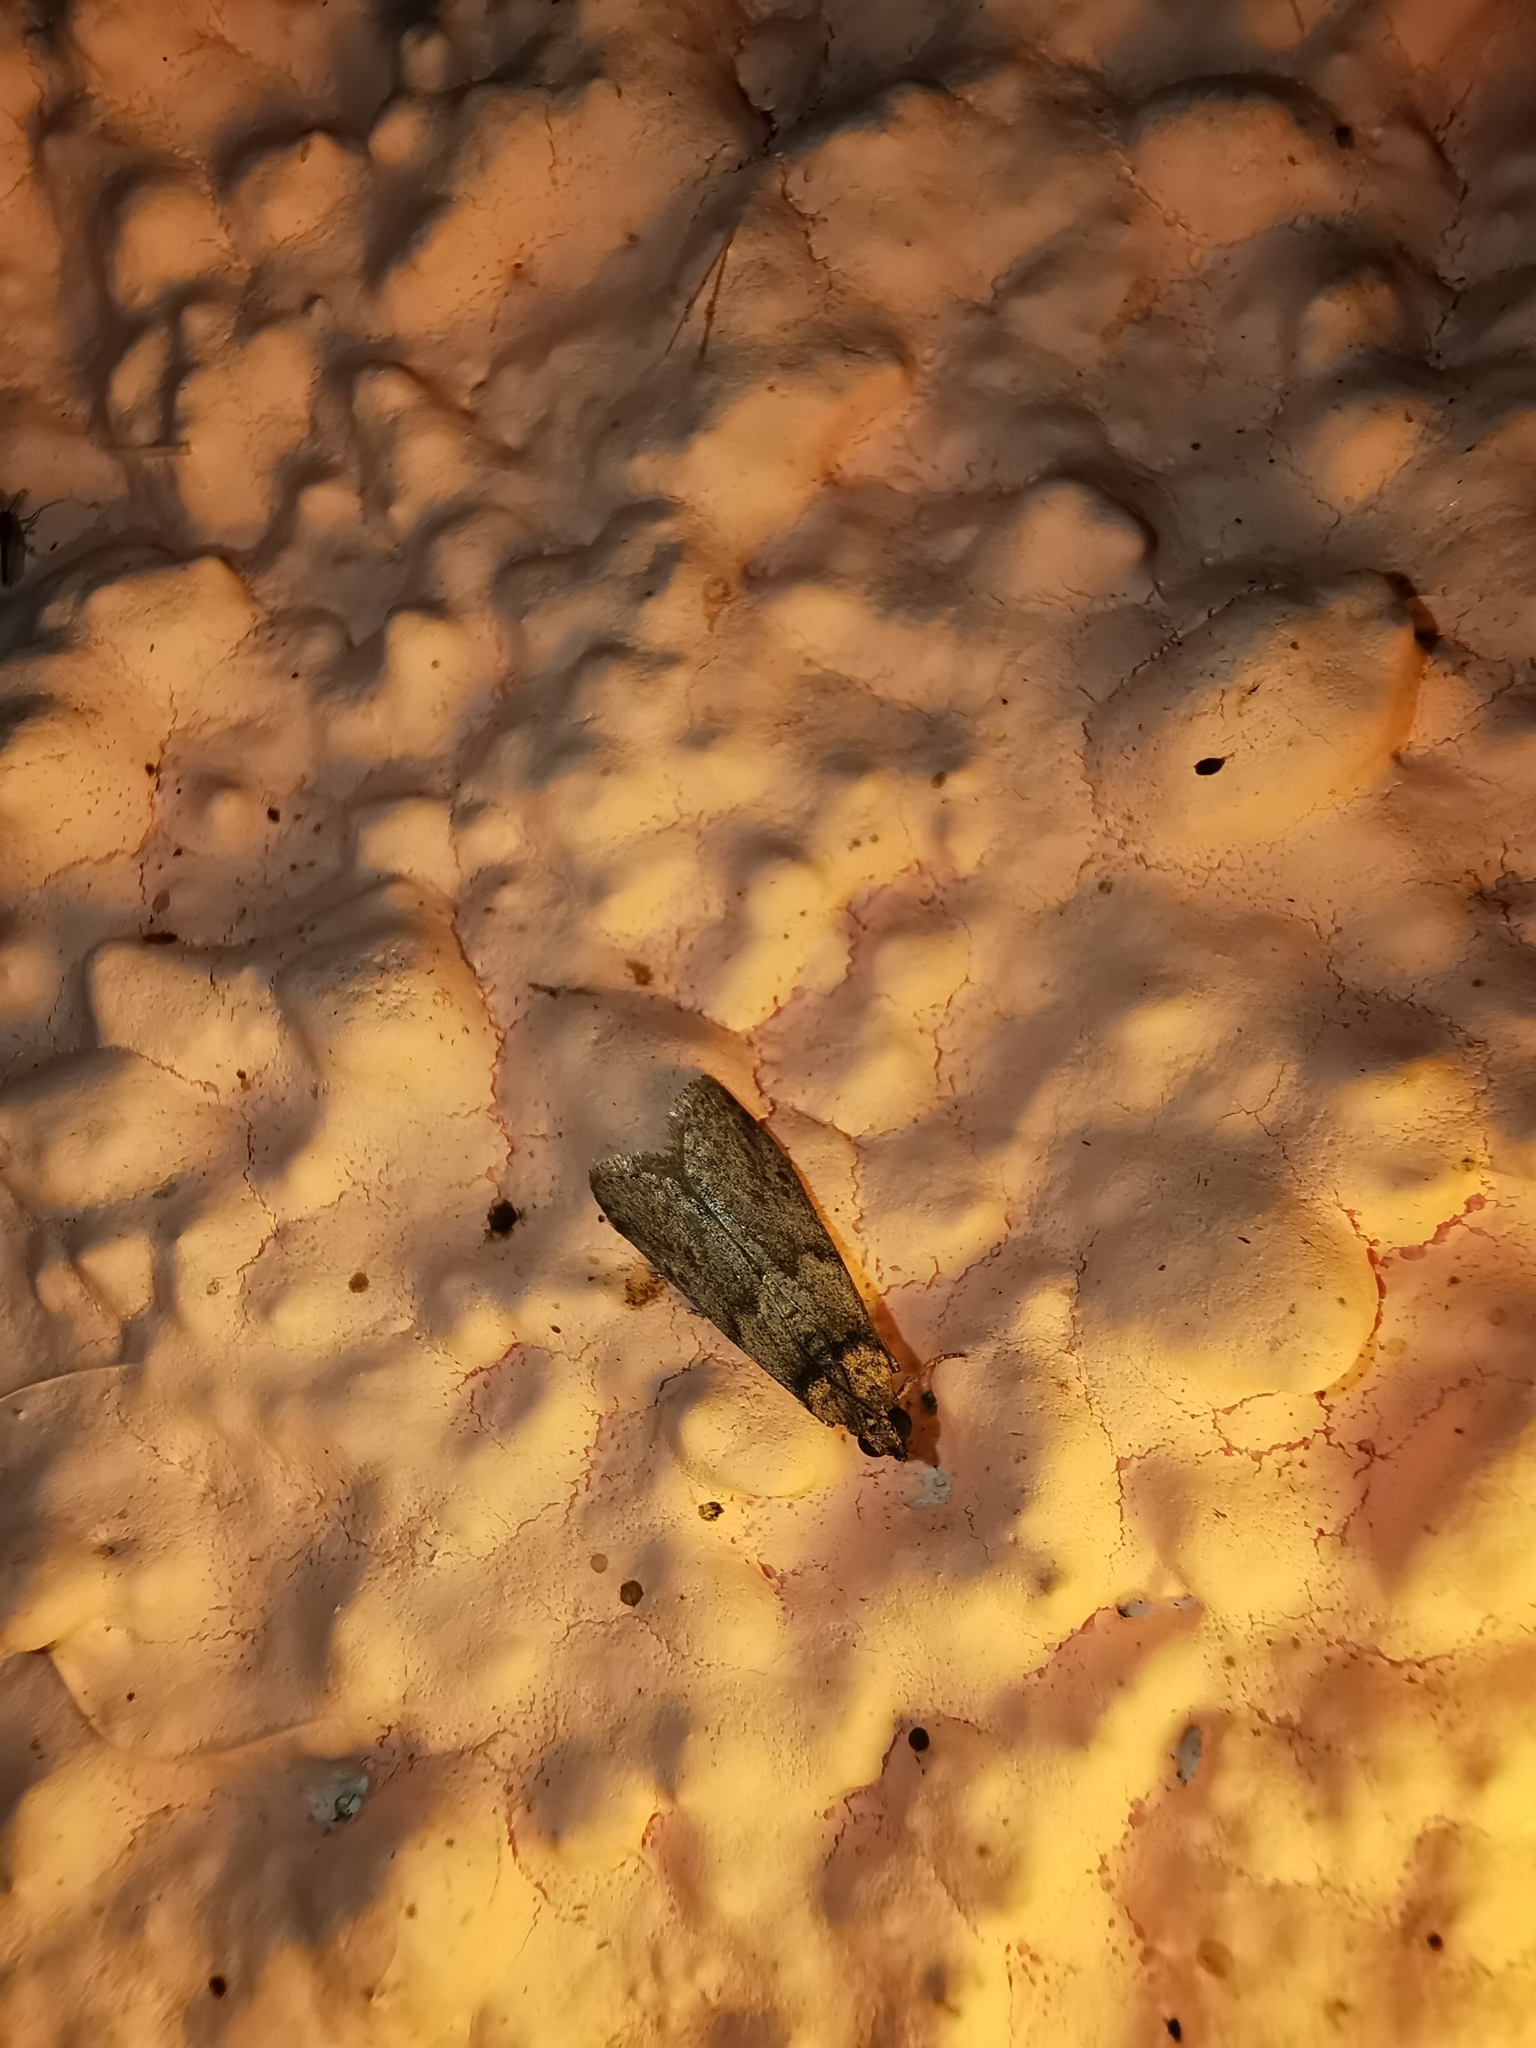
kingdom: Animalia
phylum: Arthropoda
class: Insecta
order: Lepidoptera
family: Pyralidae
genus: Ectomyelois
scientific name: Ectomyelois ceratoniae
